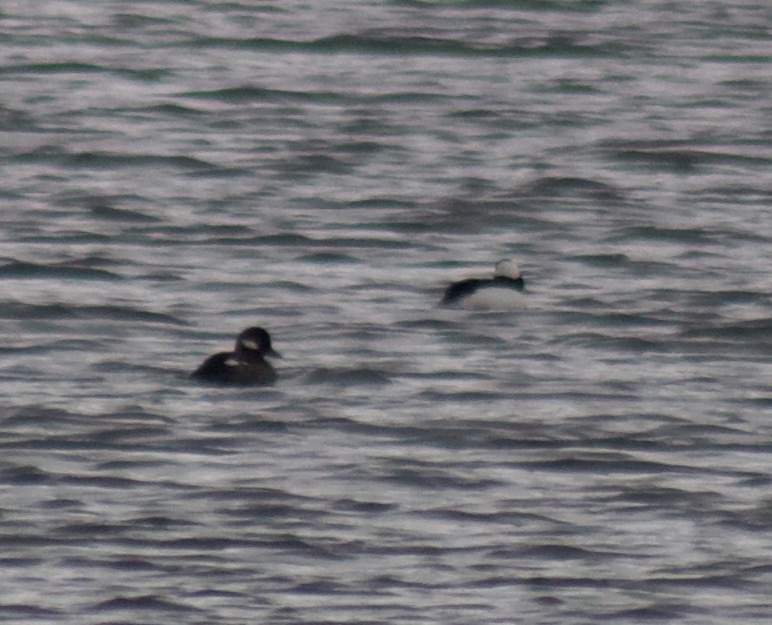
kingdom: Animalia
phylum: Chordata
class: Aves
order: Anseriformes
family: Anatidae
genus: Bucephala
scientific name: Bucephala albeola
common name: Bufflehead
